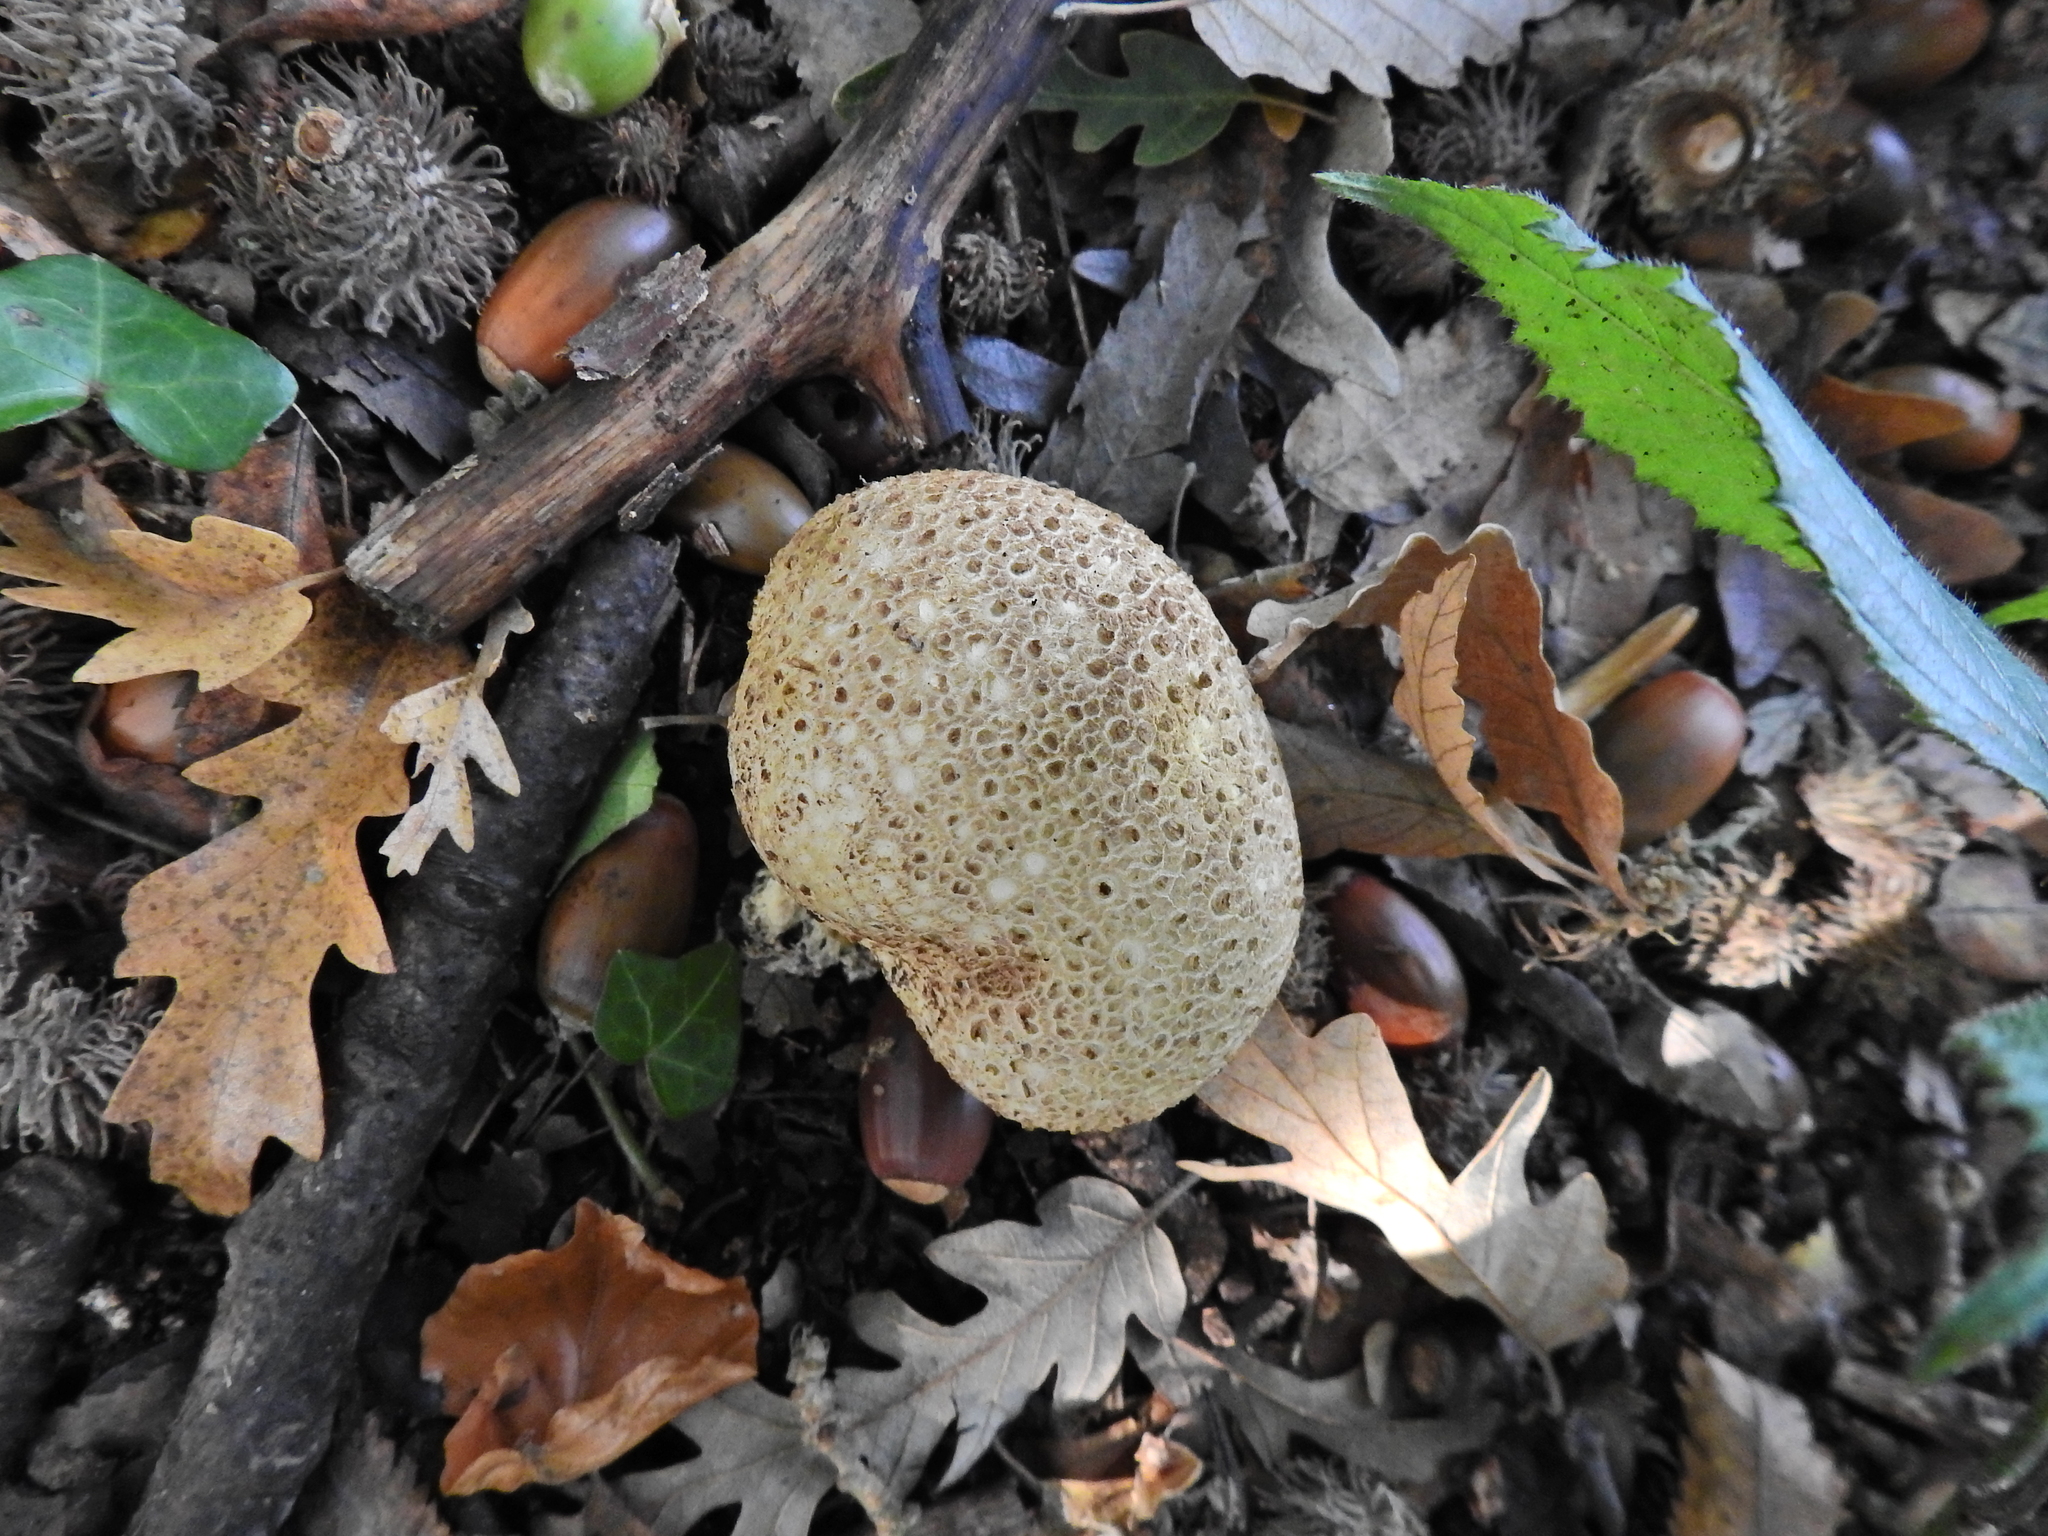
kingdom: Fungi
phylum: Basidiomycota
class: Agaricomycetes
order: Boletales
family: Sclerodermataceae
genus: Scleroderma
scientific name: Scleroderma citrinum
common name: Common earthball
